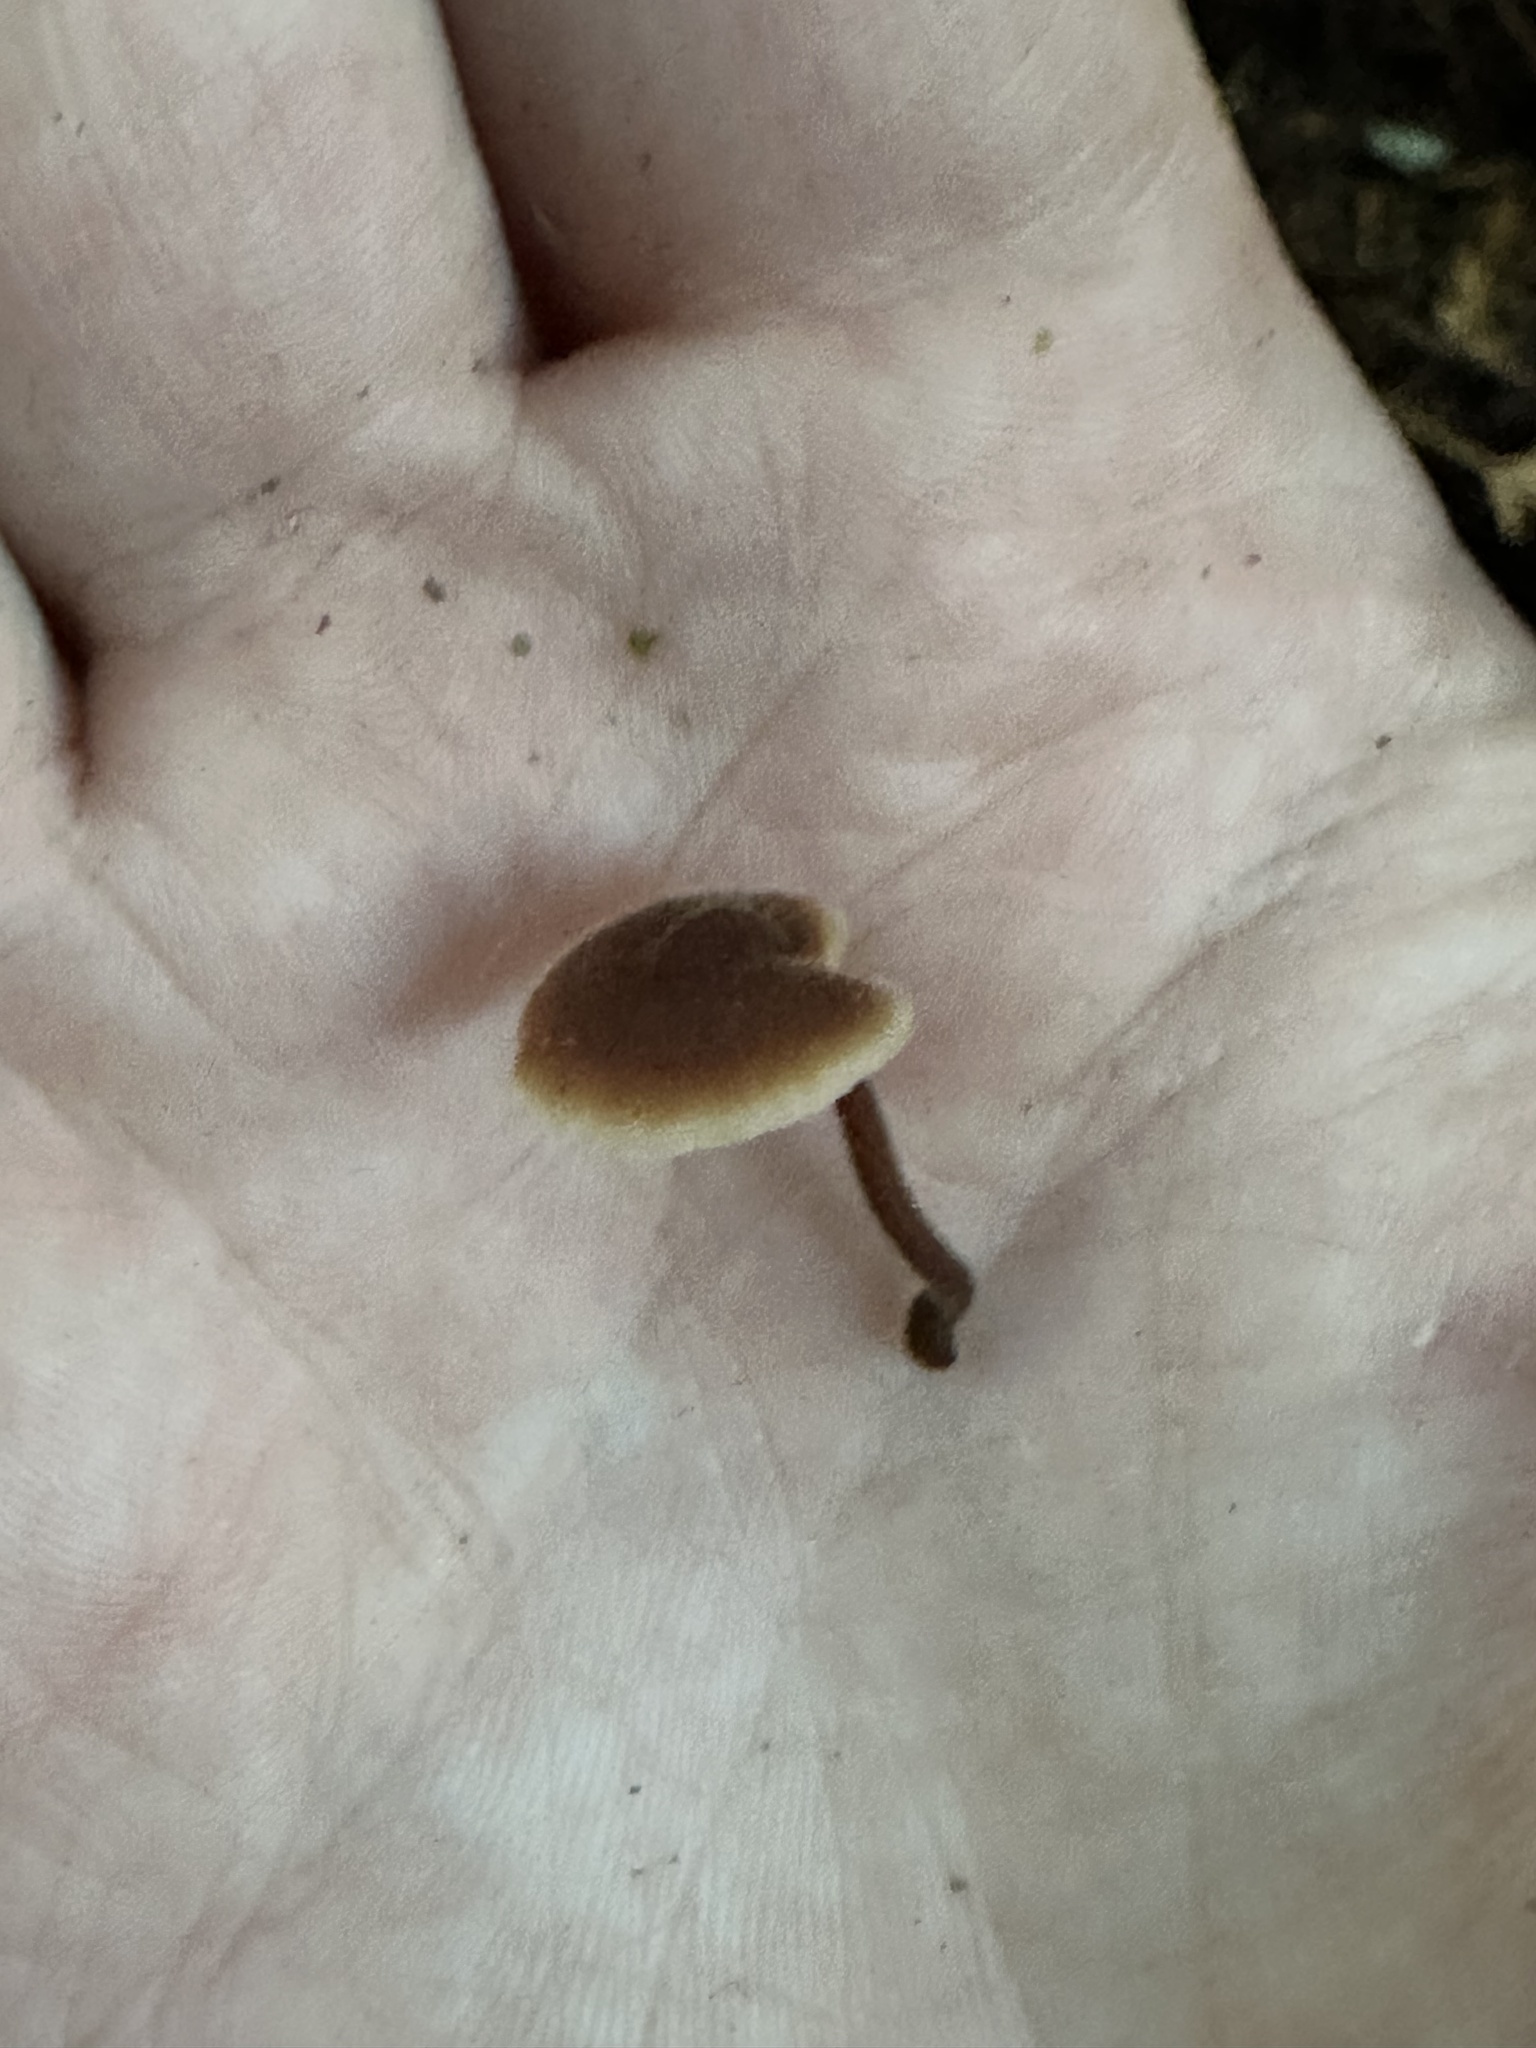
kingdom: Fungi
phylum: Basidiomycota
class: Agaricomycetes
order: Russulales
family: Auriscalpiaceae
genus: Auriscalpium
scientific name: Auriscalpium vulgare
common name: Earpick fungus
